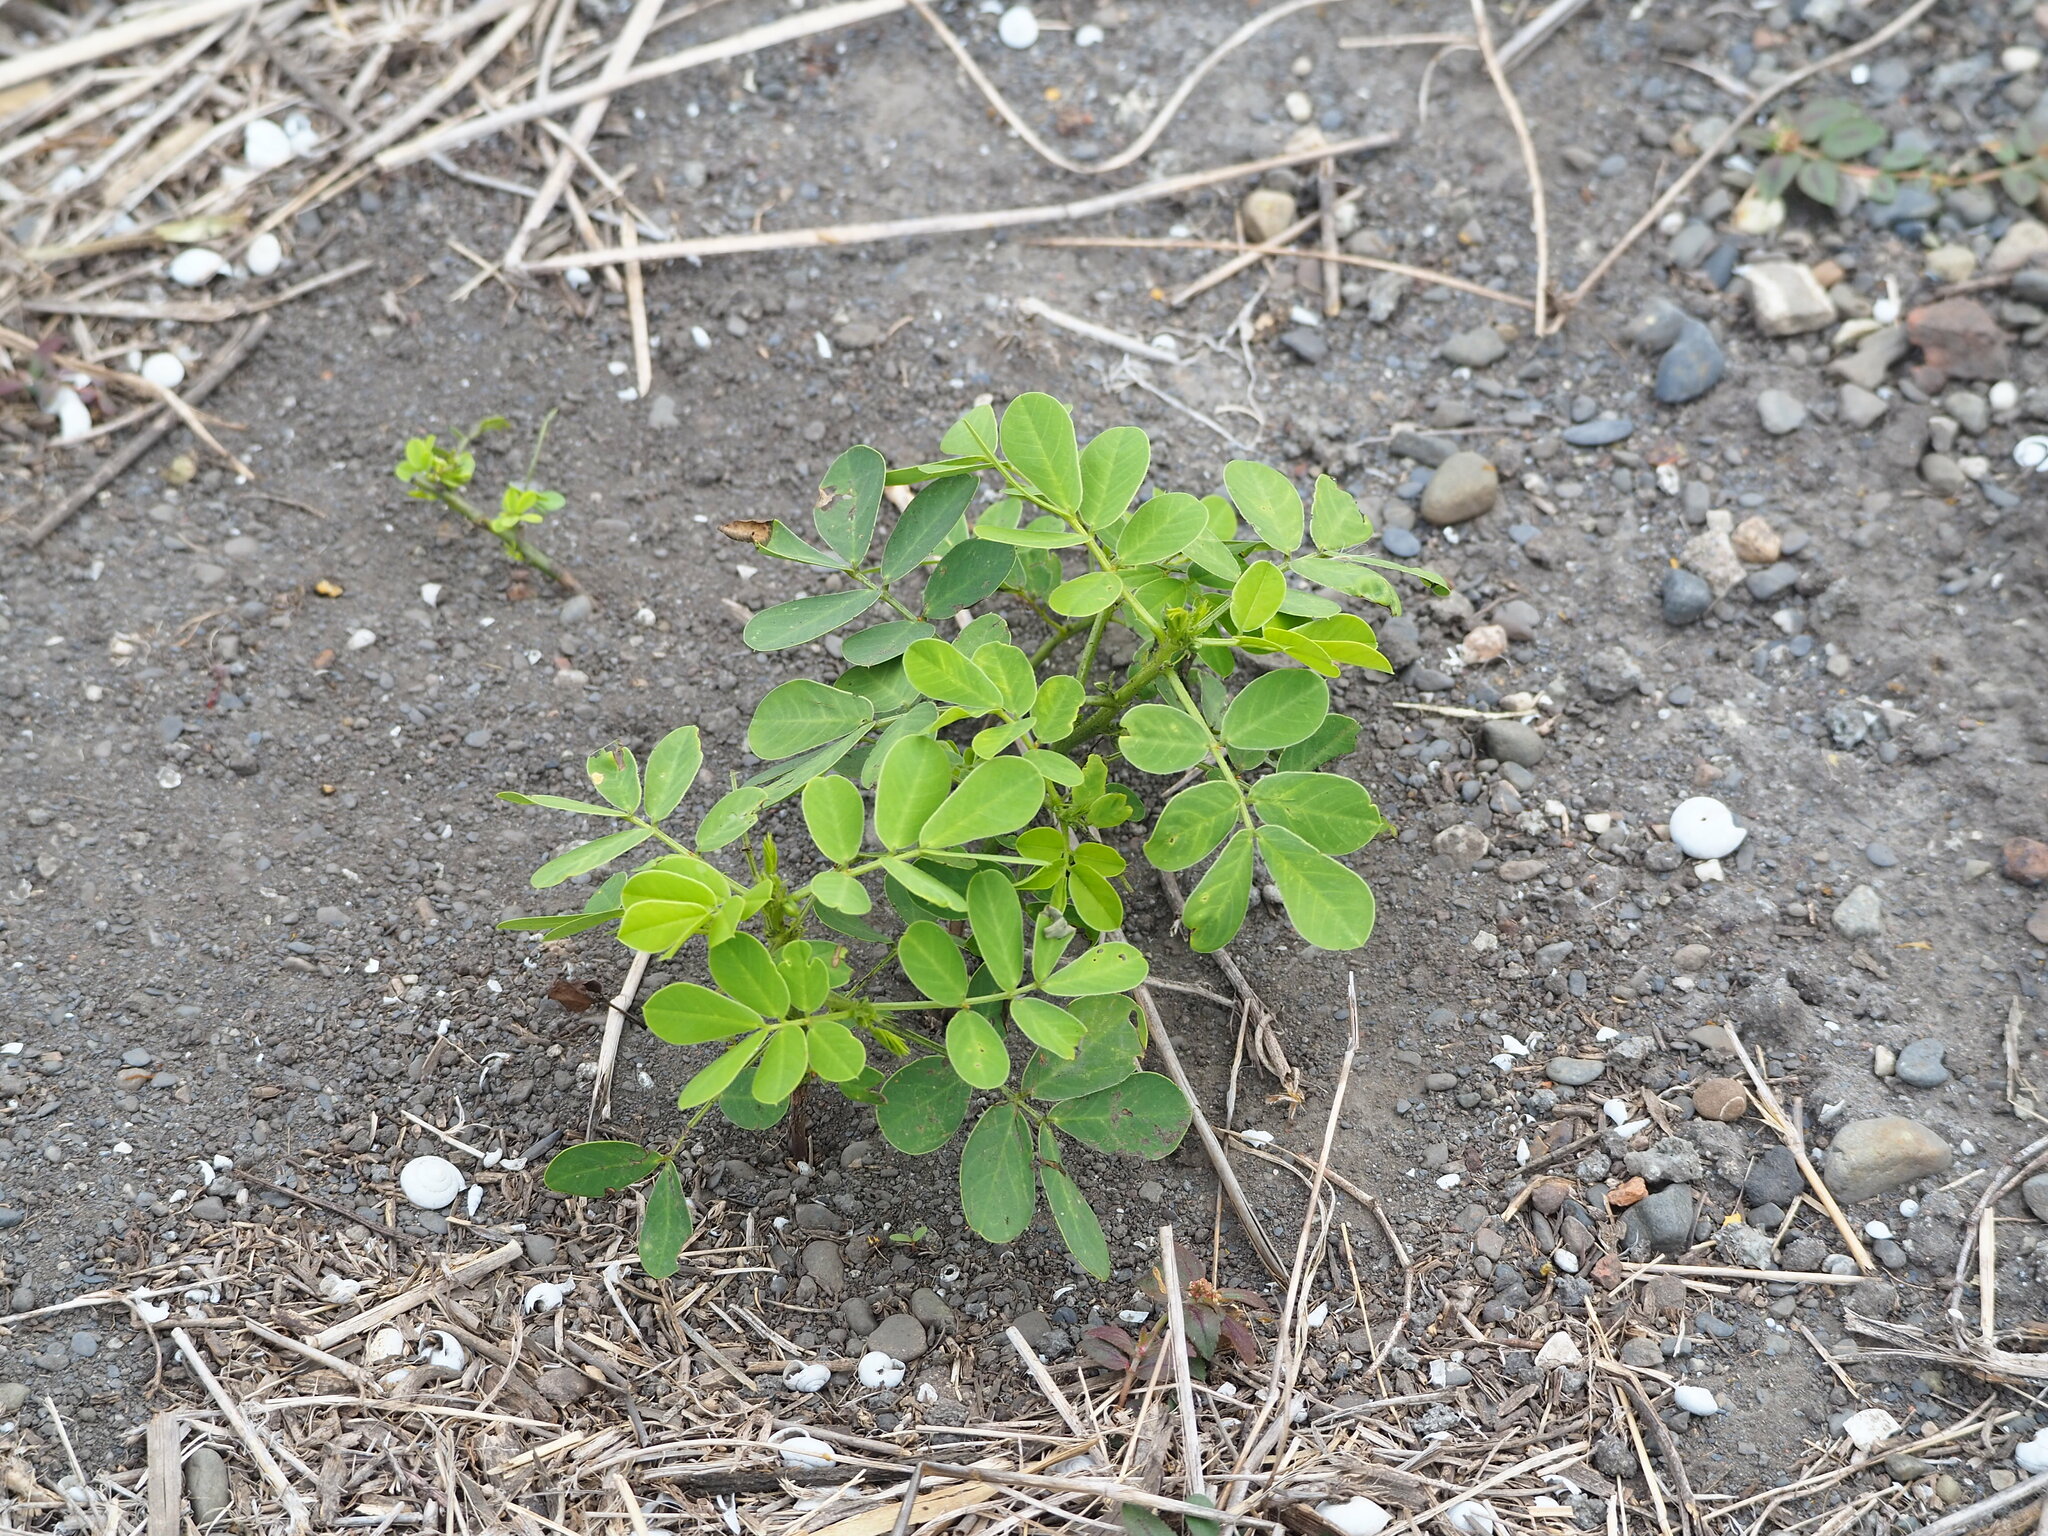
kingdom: Plantae
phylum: Tracheophyta
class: Magnoliopsida
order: Fabales
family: Fabaceae
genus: Arachis
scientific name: Arachis hypogaea
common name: Peanut
